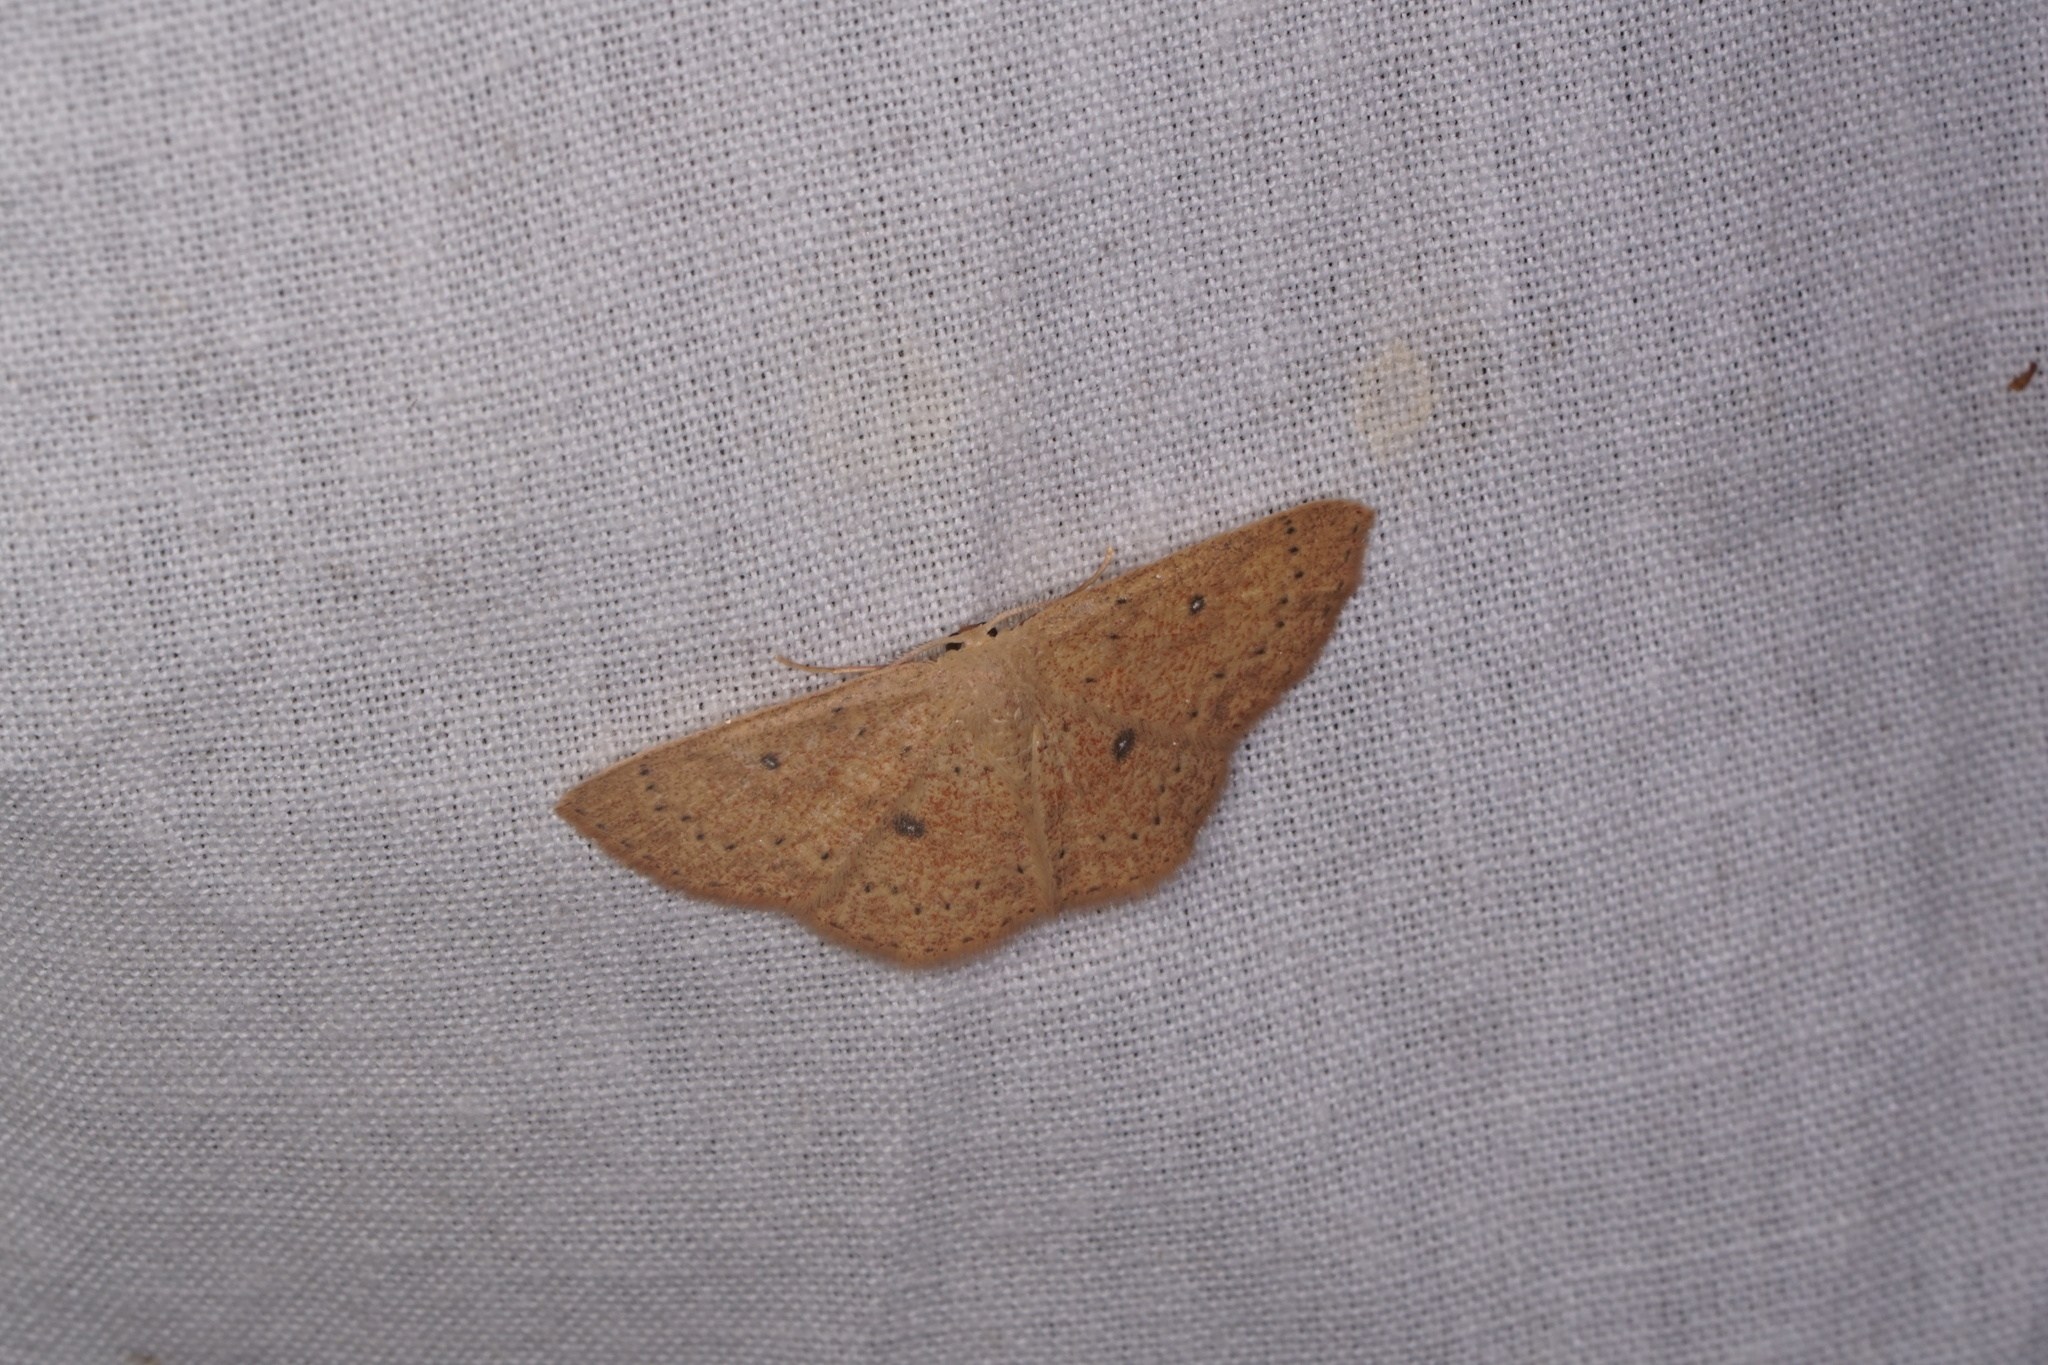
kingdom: Animalia
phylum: Arthropoda
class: Insecta
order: Lepidoptera
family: Geometridae
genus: Cyclophora
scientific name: Cyclophora packardi
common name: Packard's wave
